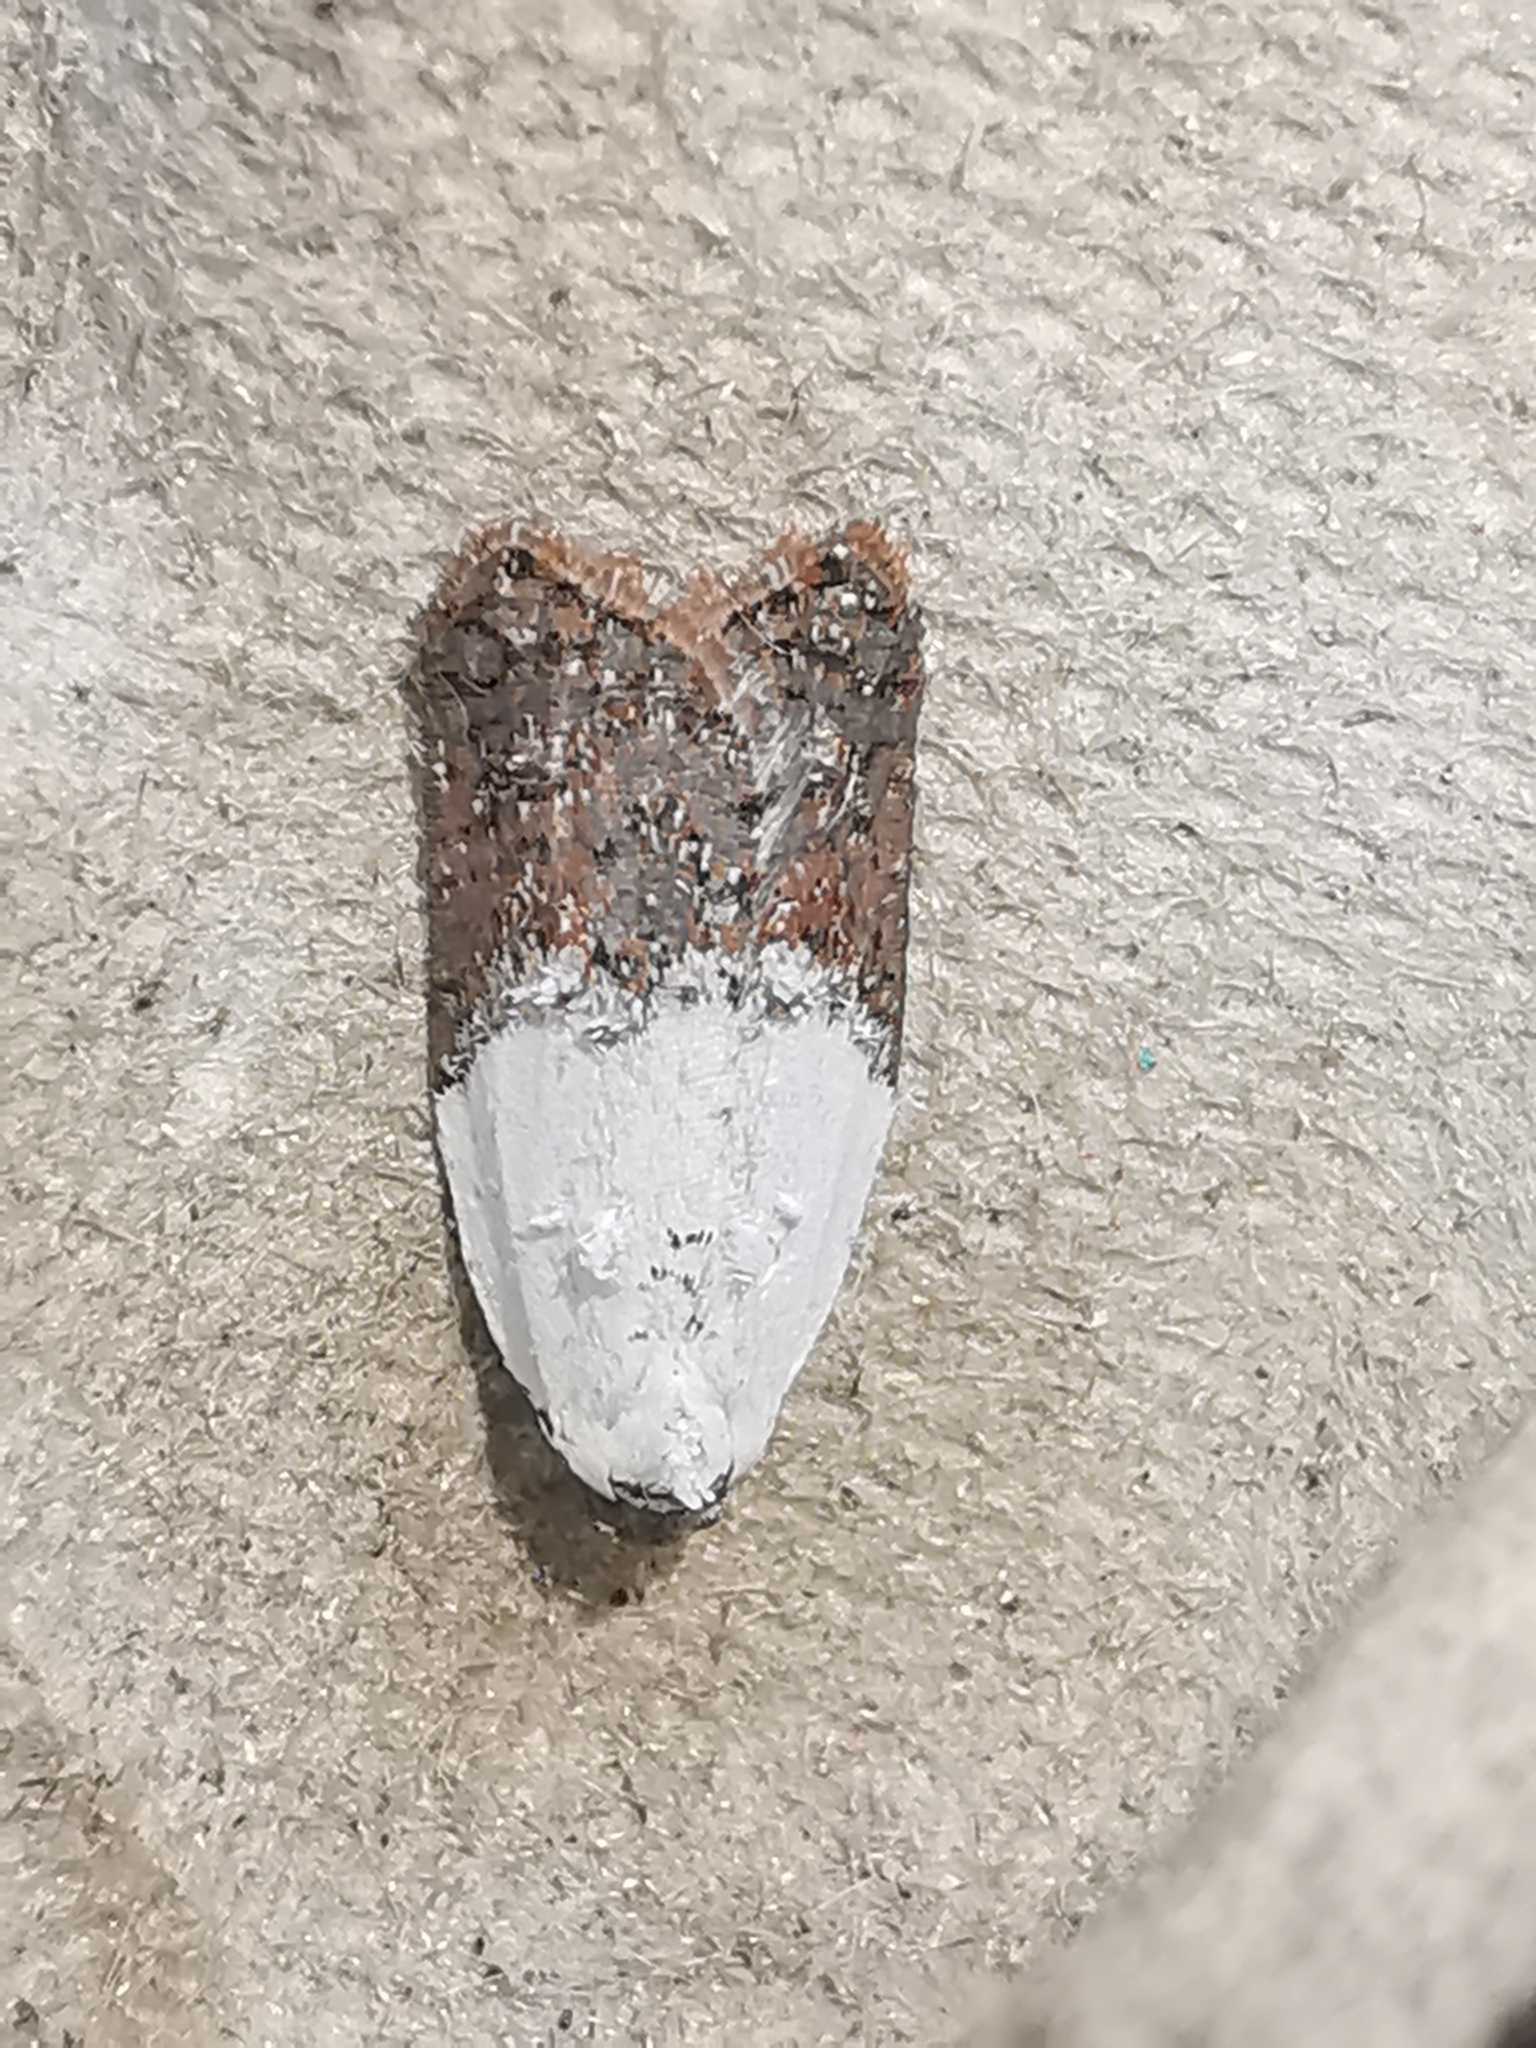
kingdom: Animalia
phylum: Arthropoda
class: Insecta
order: Lepidoptera
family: Tortricidae
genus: Acleris
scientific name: Acleris variegana
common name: Garden rose tortrix
